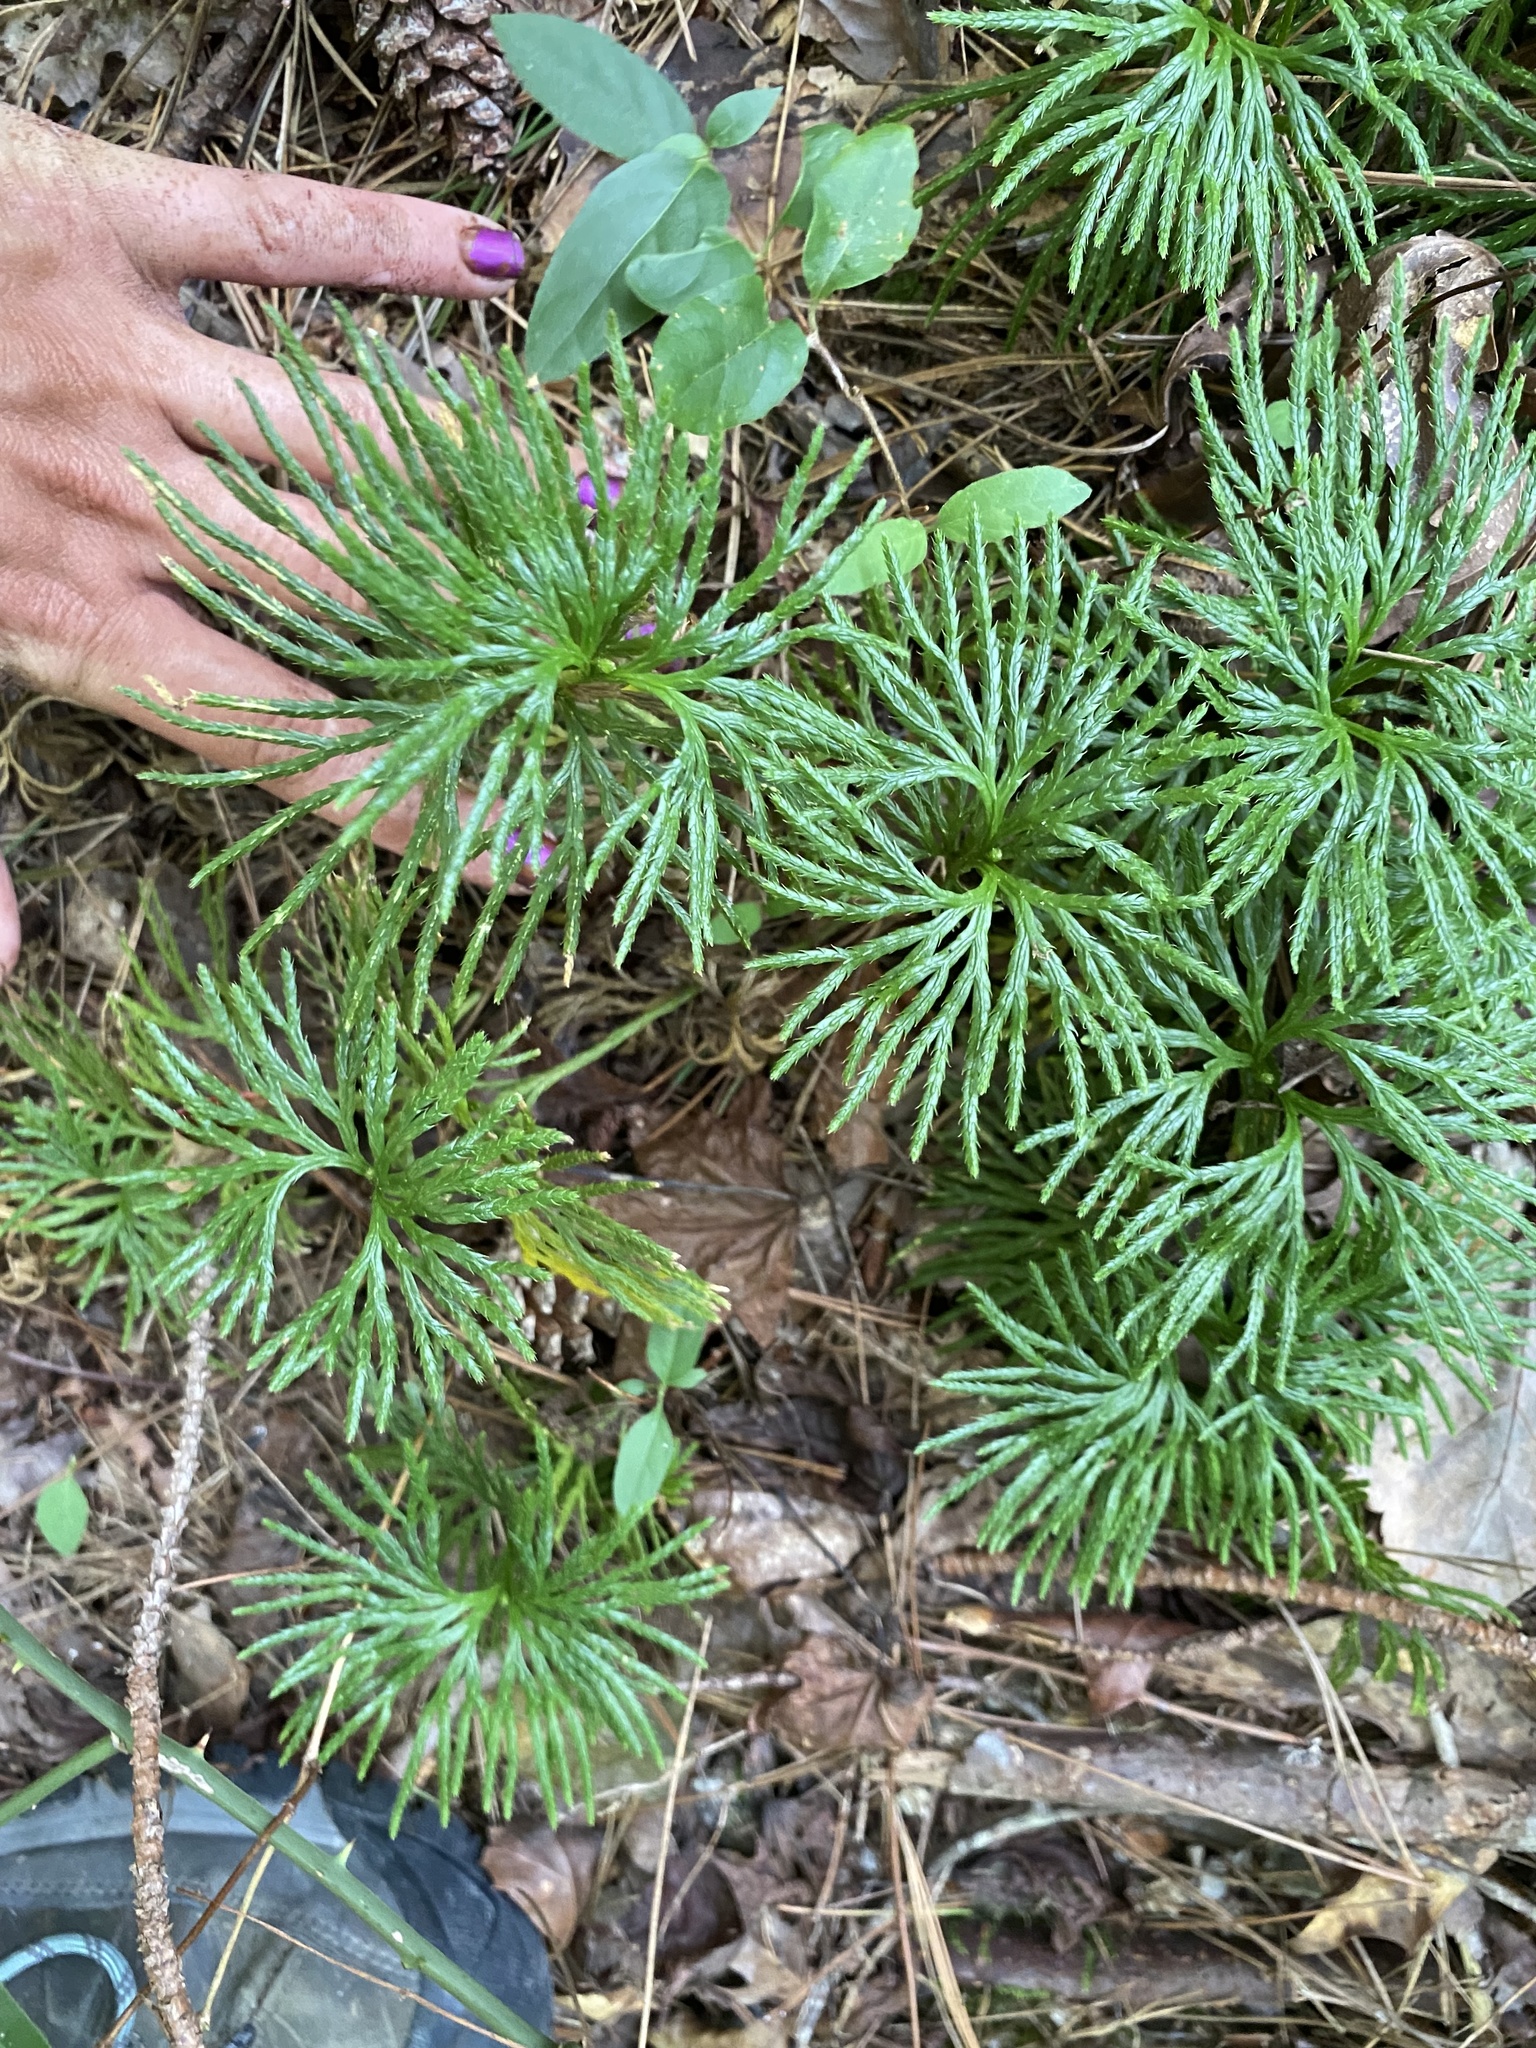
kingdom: Plantae
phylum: Tracheophyta
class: Lycopodiopsida
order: Lycopodiales
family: Lycopodiaceae
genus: Diphasiastrum
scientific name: Diphasiastrum digitatum
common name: Southern running-pine
